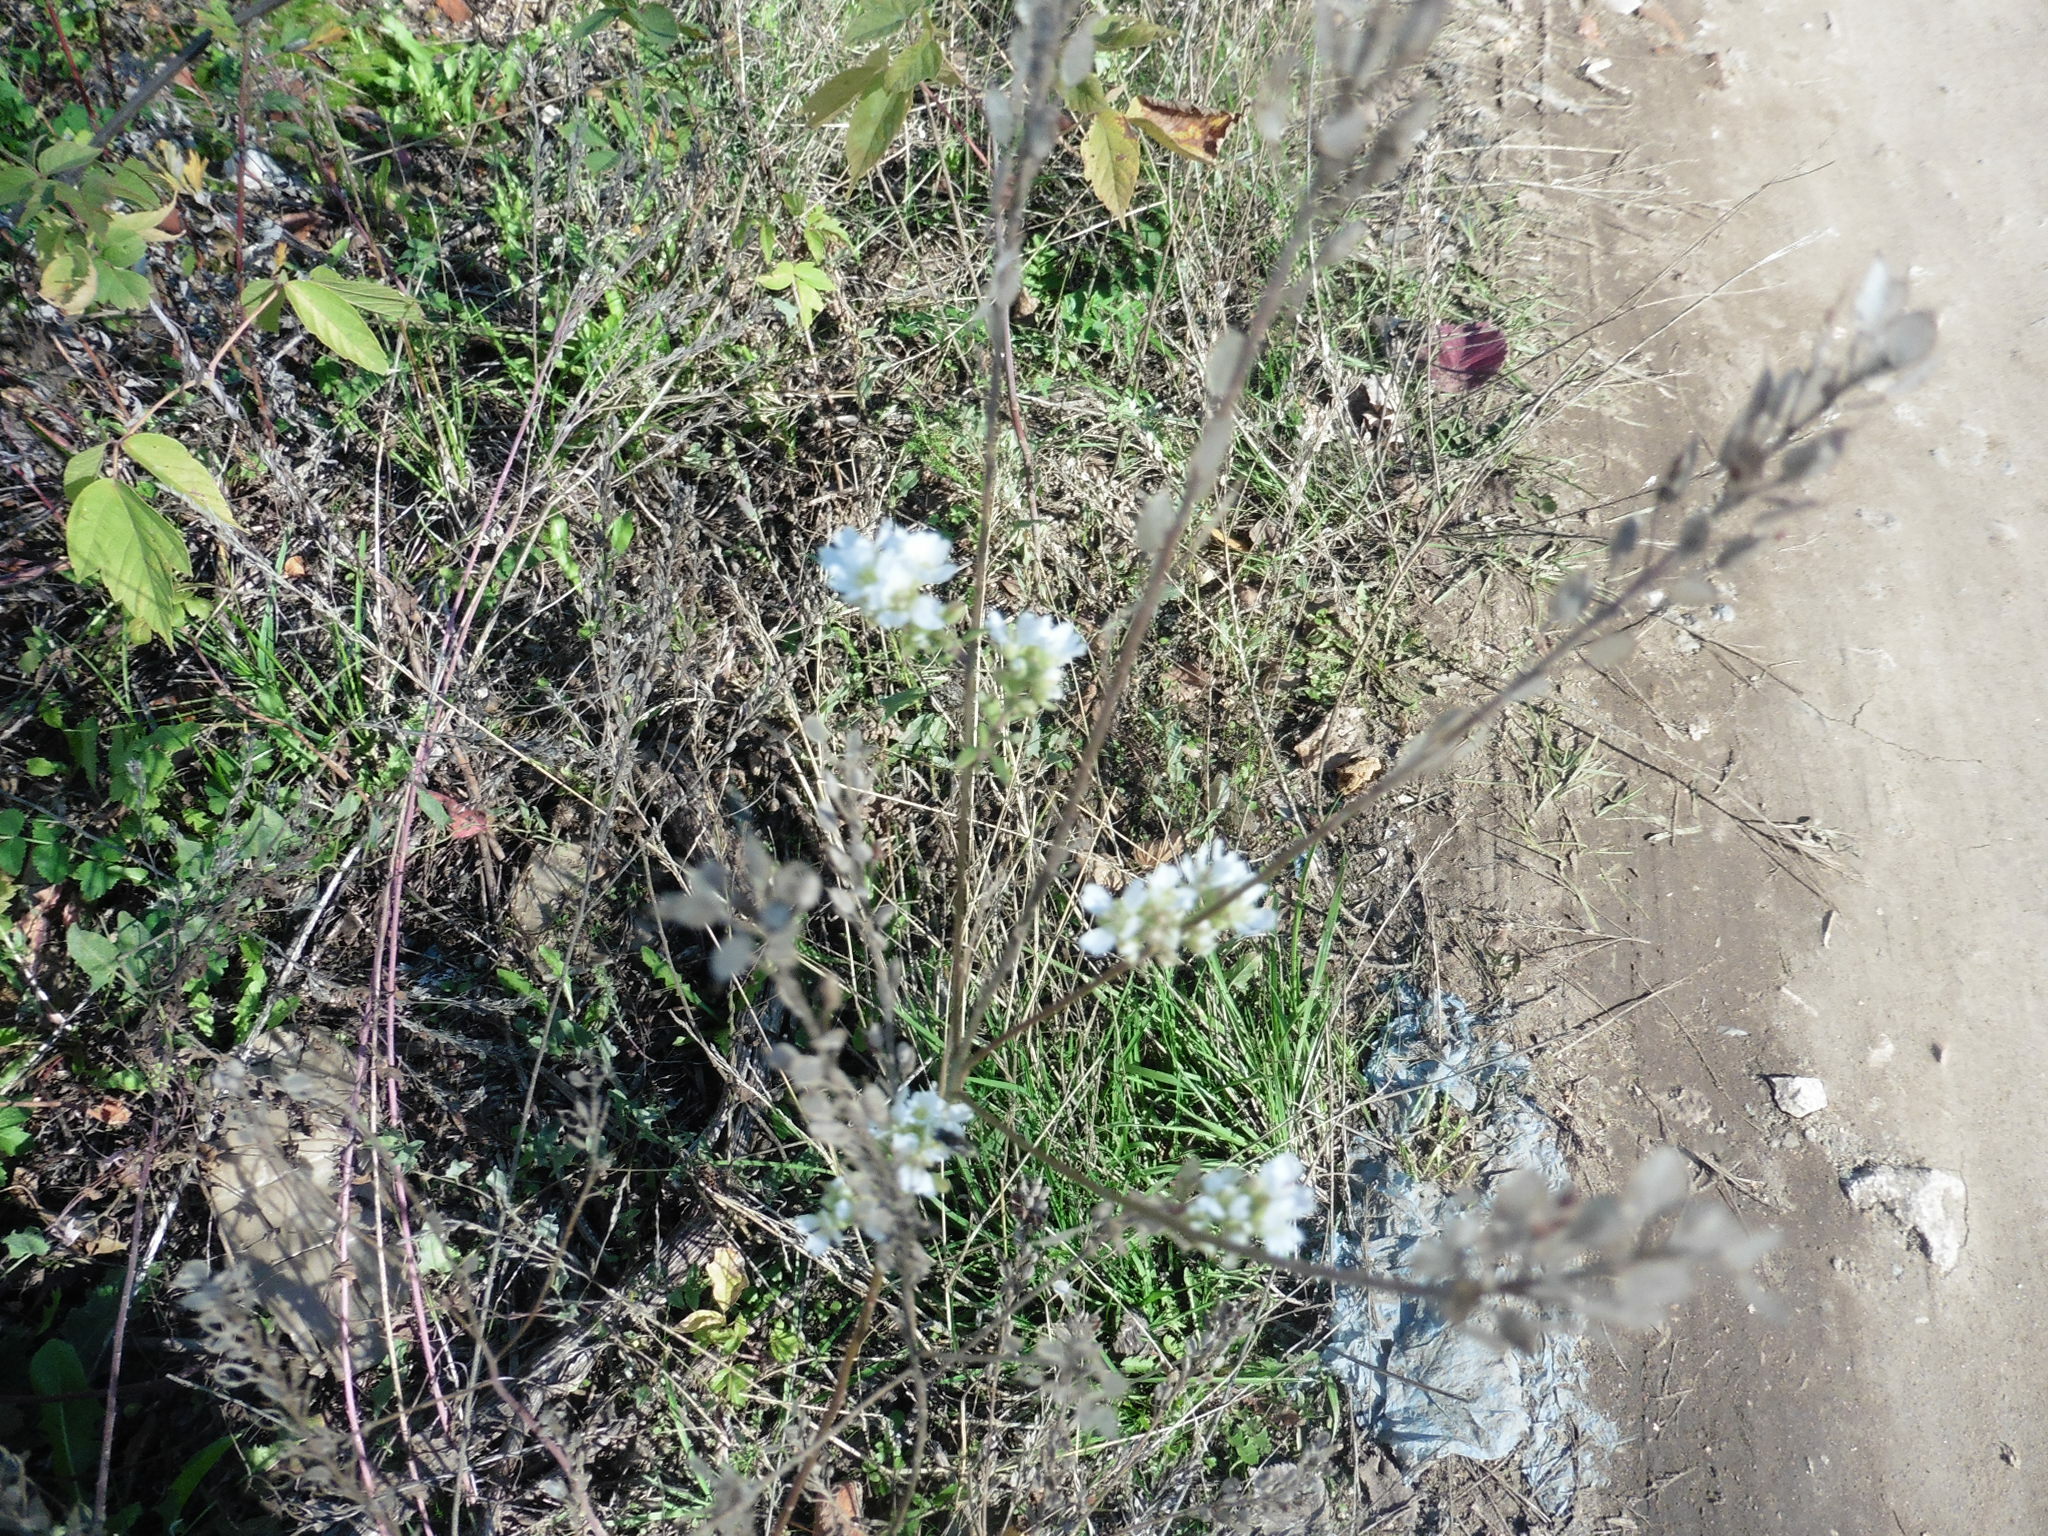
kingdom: Plantae
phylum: Tracheophyta
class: Magnoliopsida
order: Brassicales
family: Brassicaceae
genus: Berteroa
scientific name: Berteroa incana
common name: Hoary alison
